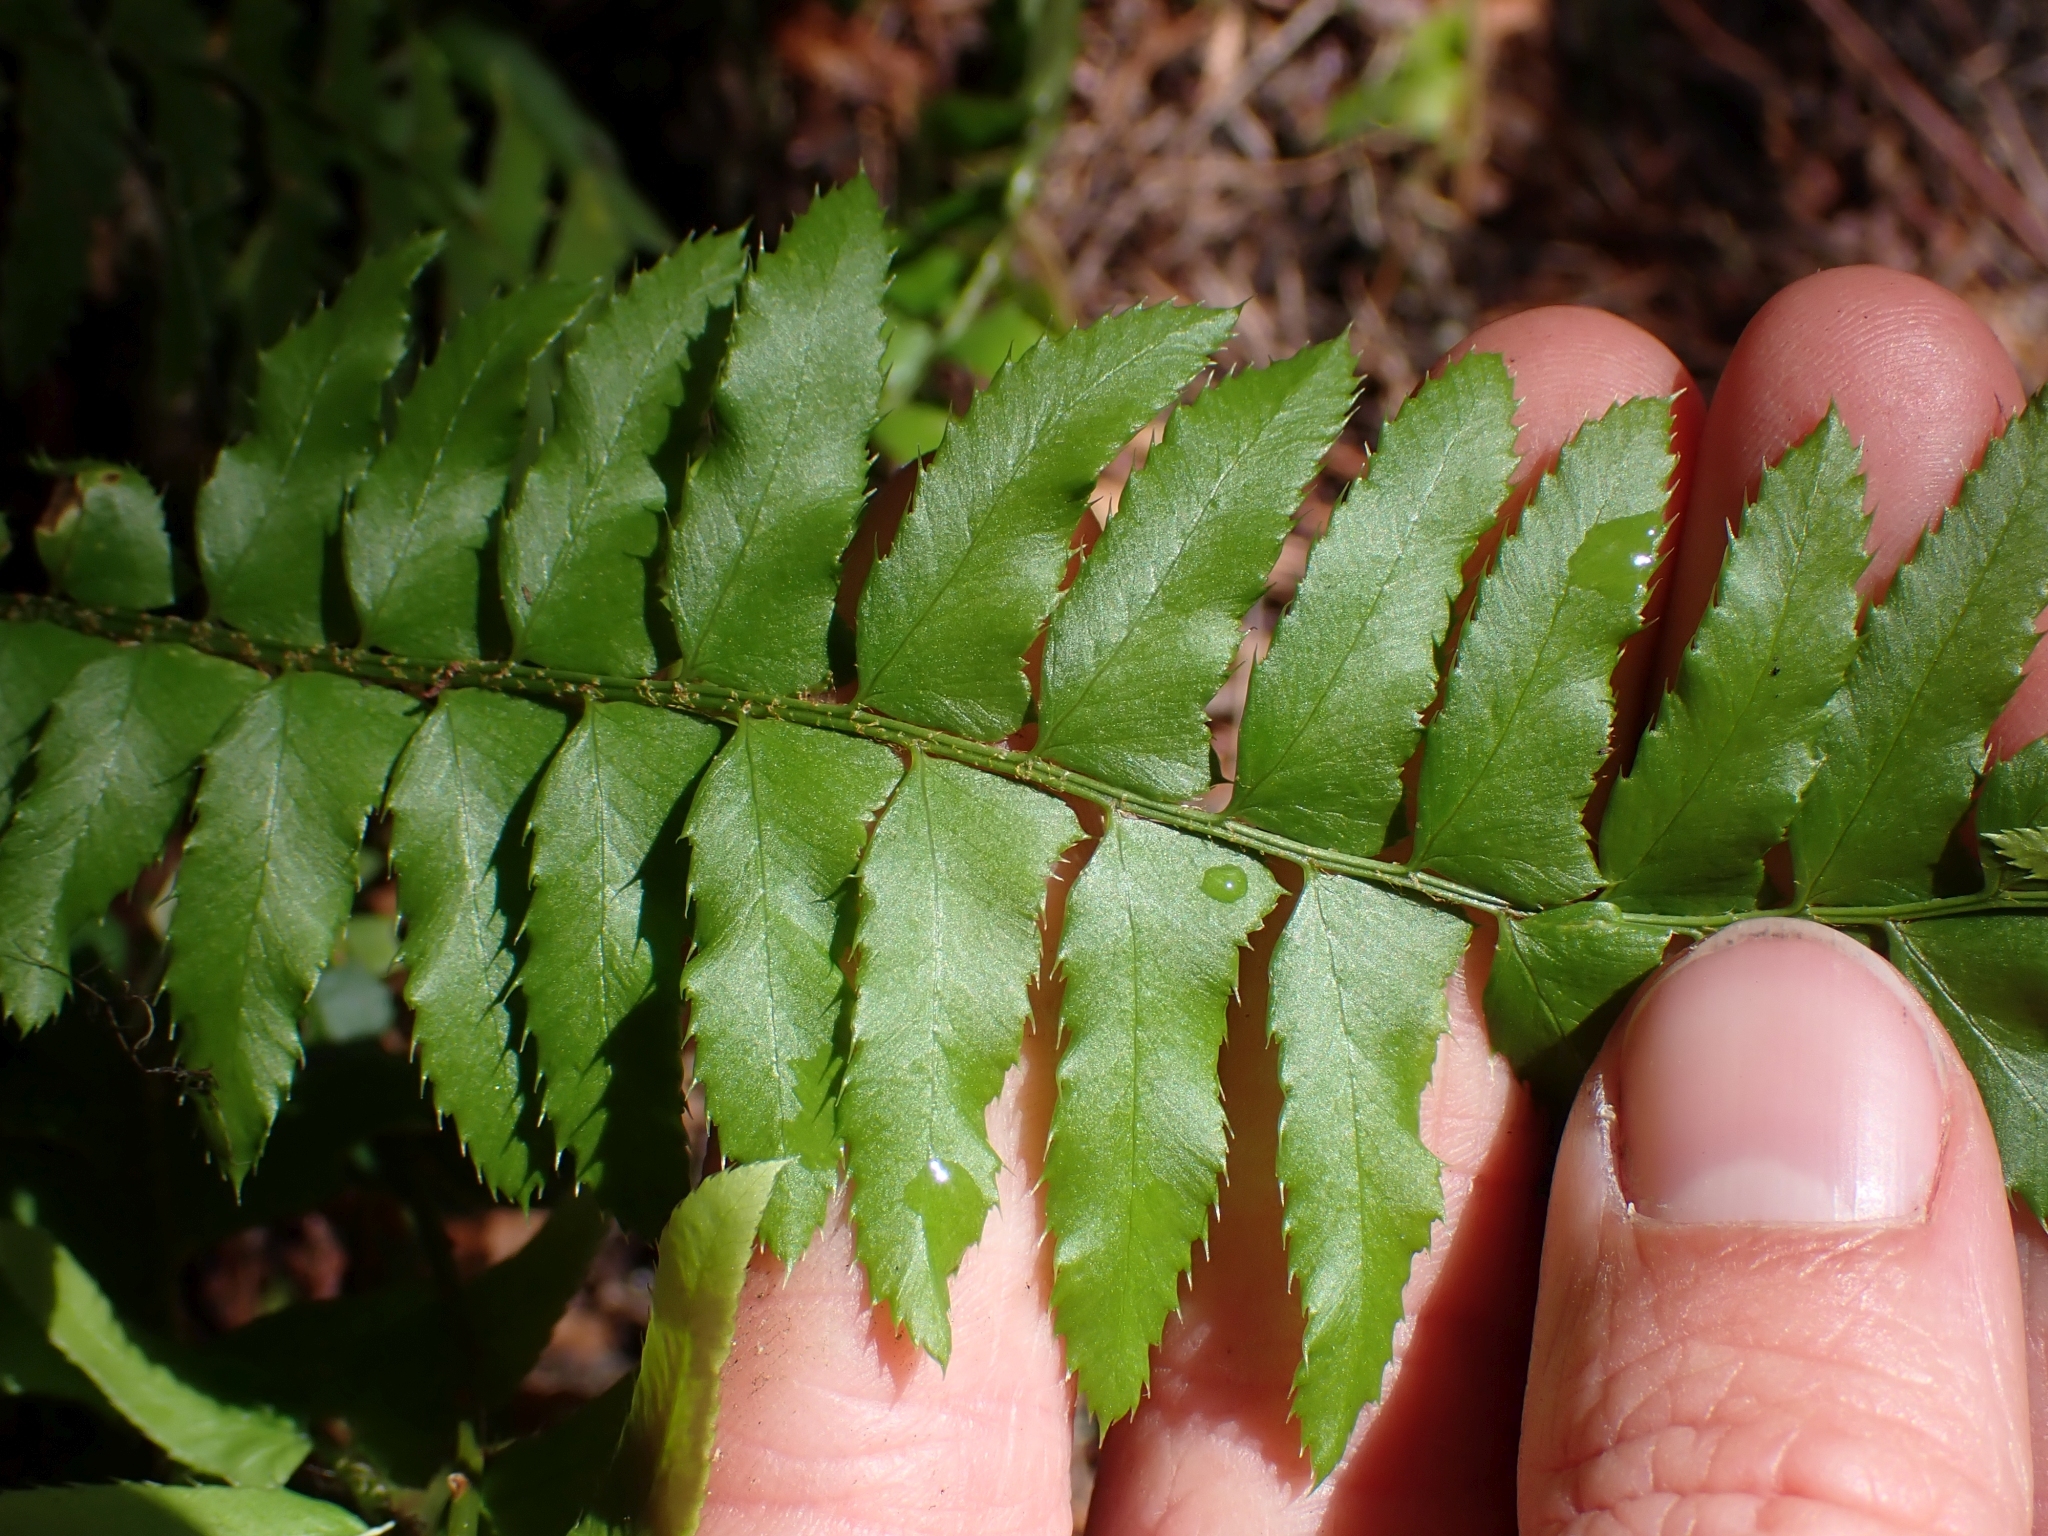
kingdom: Plantae
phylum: Tracheophyta
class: Polypodiopsida
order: Polypodiales
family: Dryopteridaceae
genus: Polystichum
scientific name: Polystichum munitum
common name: Western sword-fern
